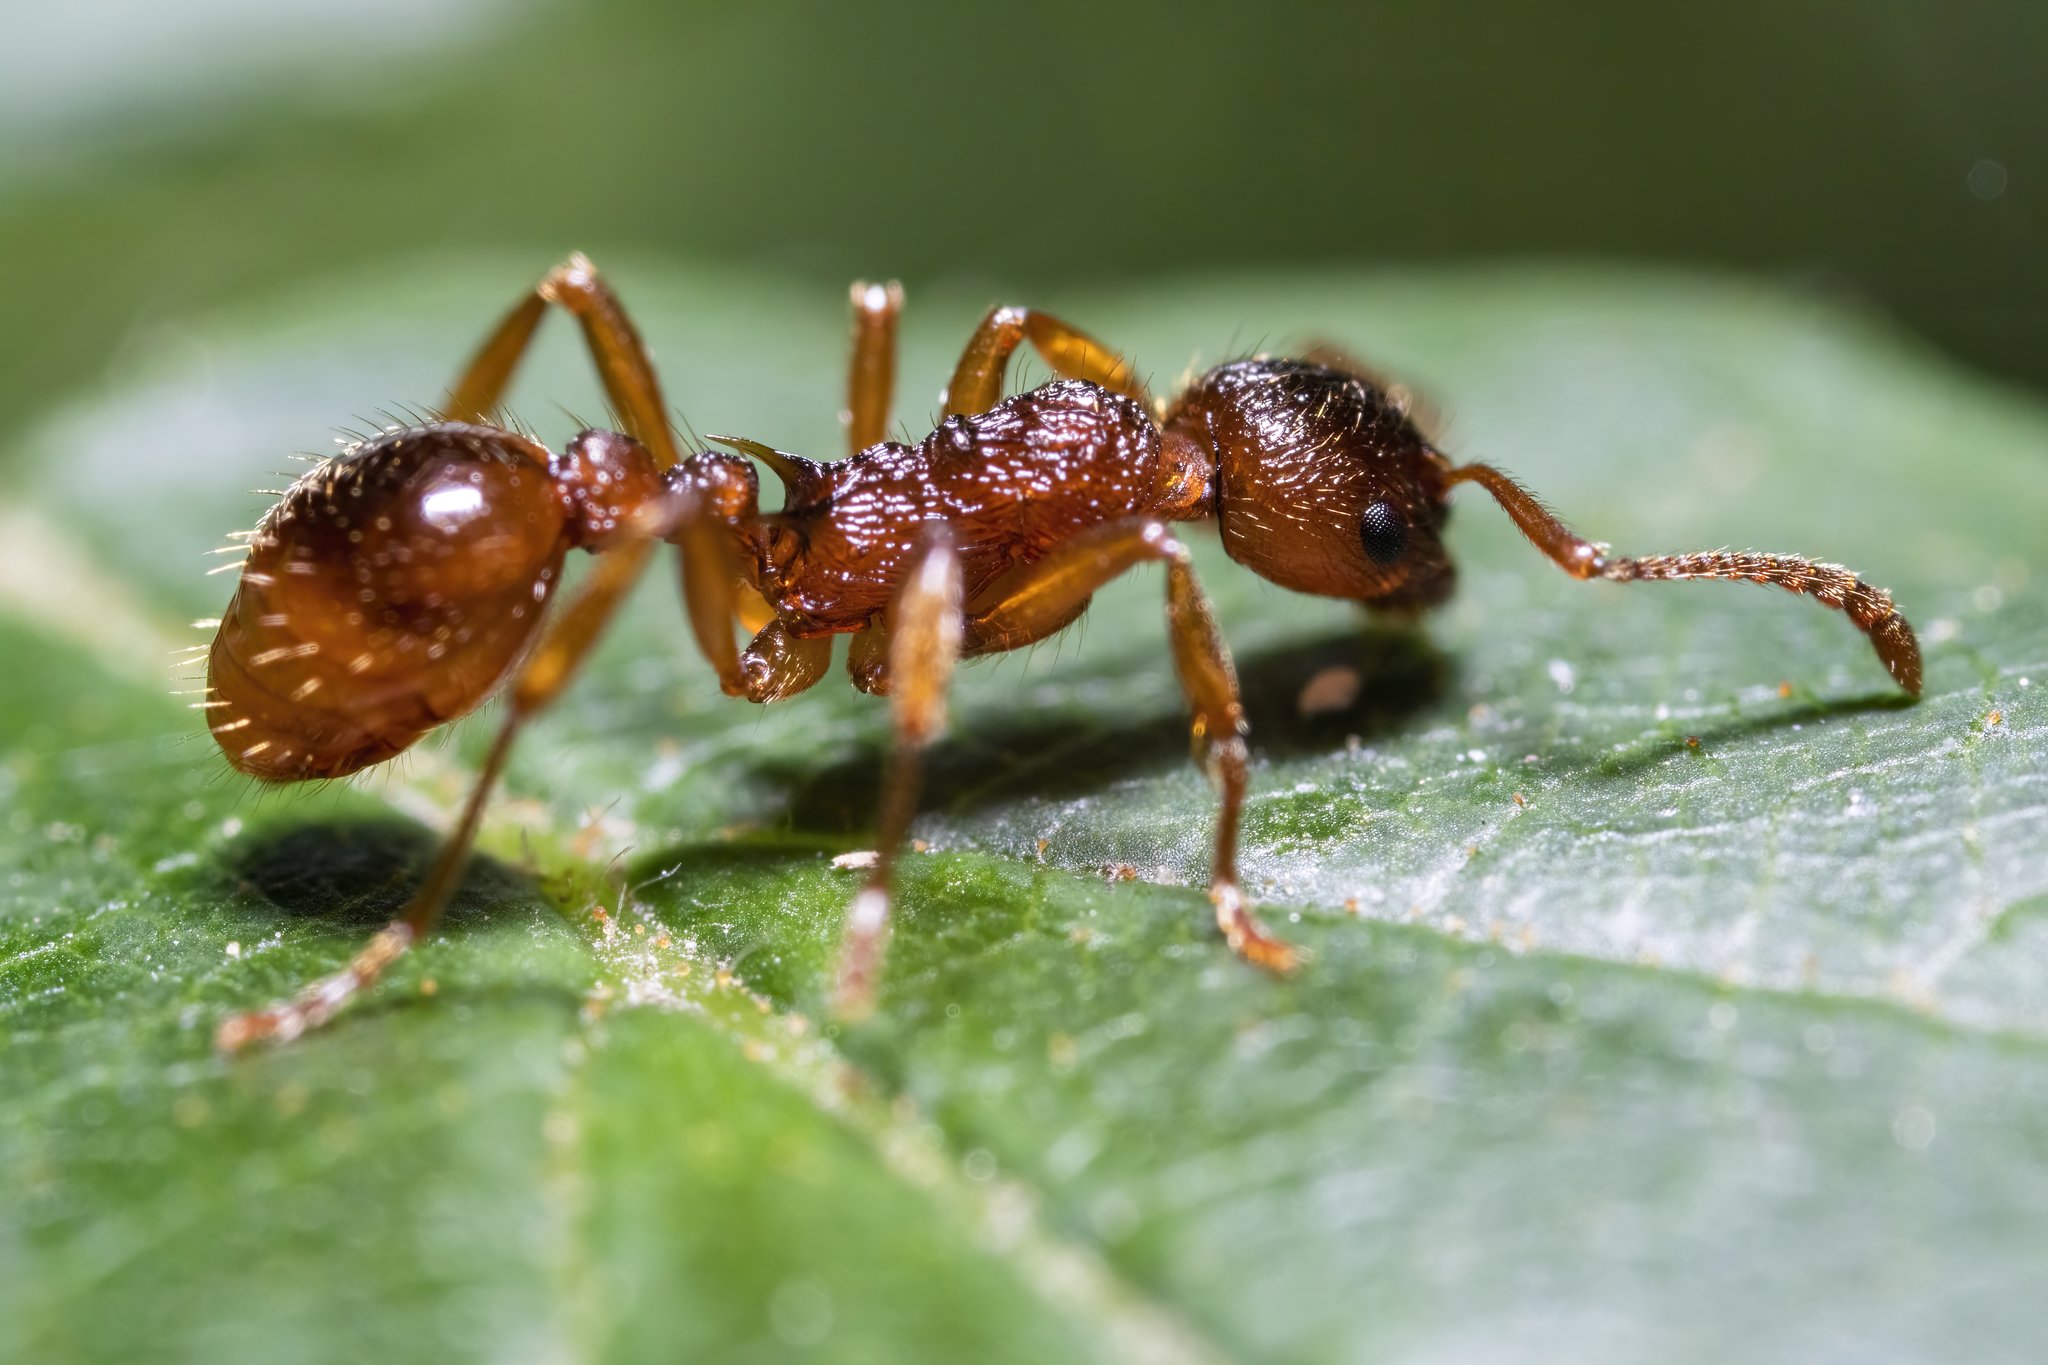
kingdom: Animalia
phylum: Arthropoda
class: Insecta
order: Hymenoptera
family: Formicidae
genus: Myrmica
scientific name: Myrmica ruginodis
